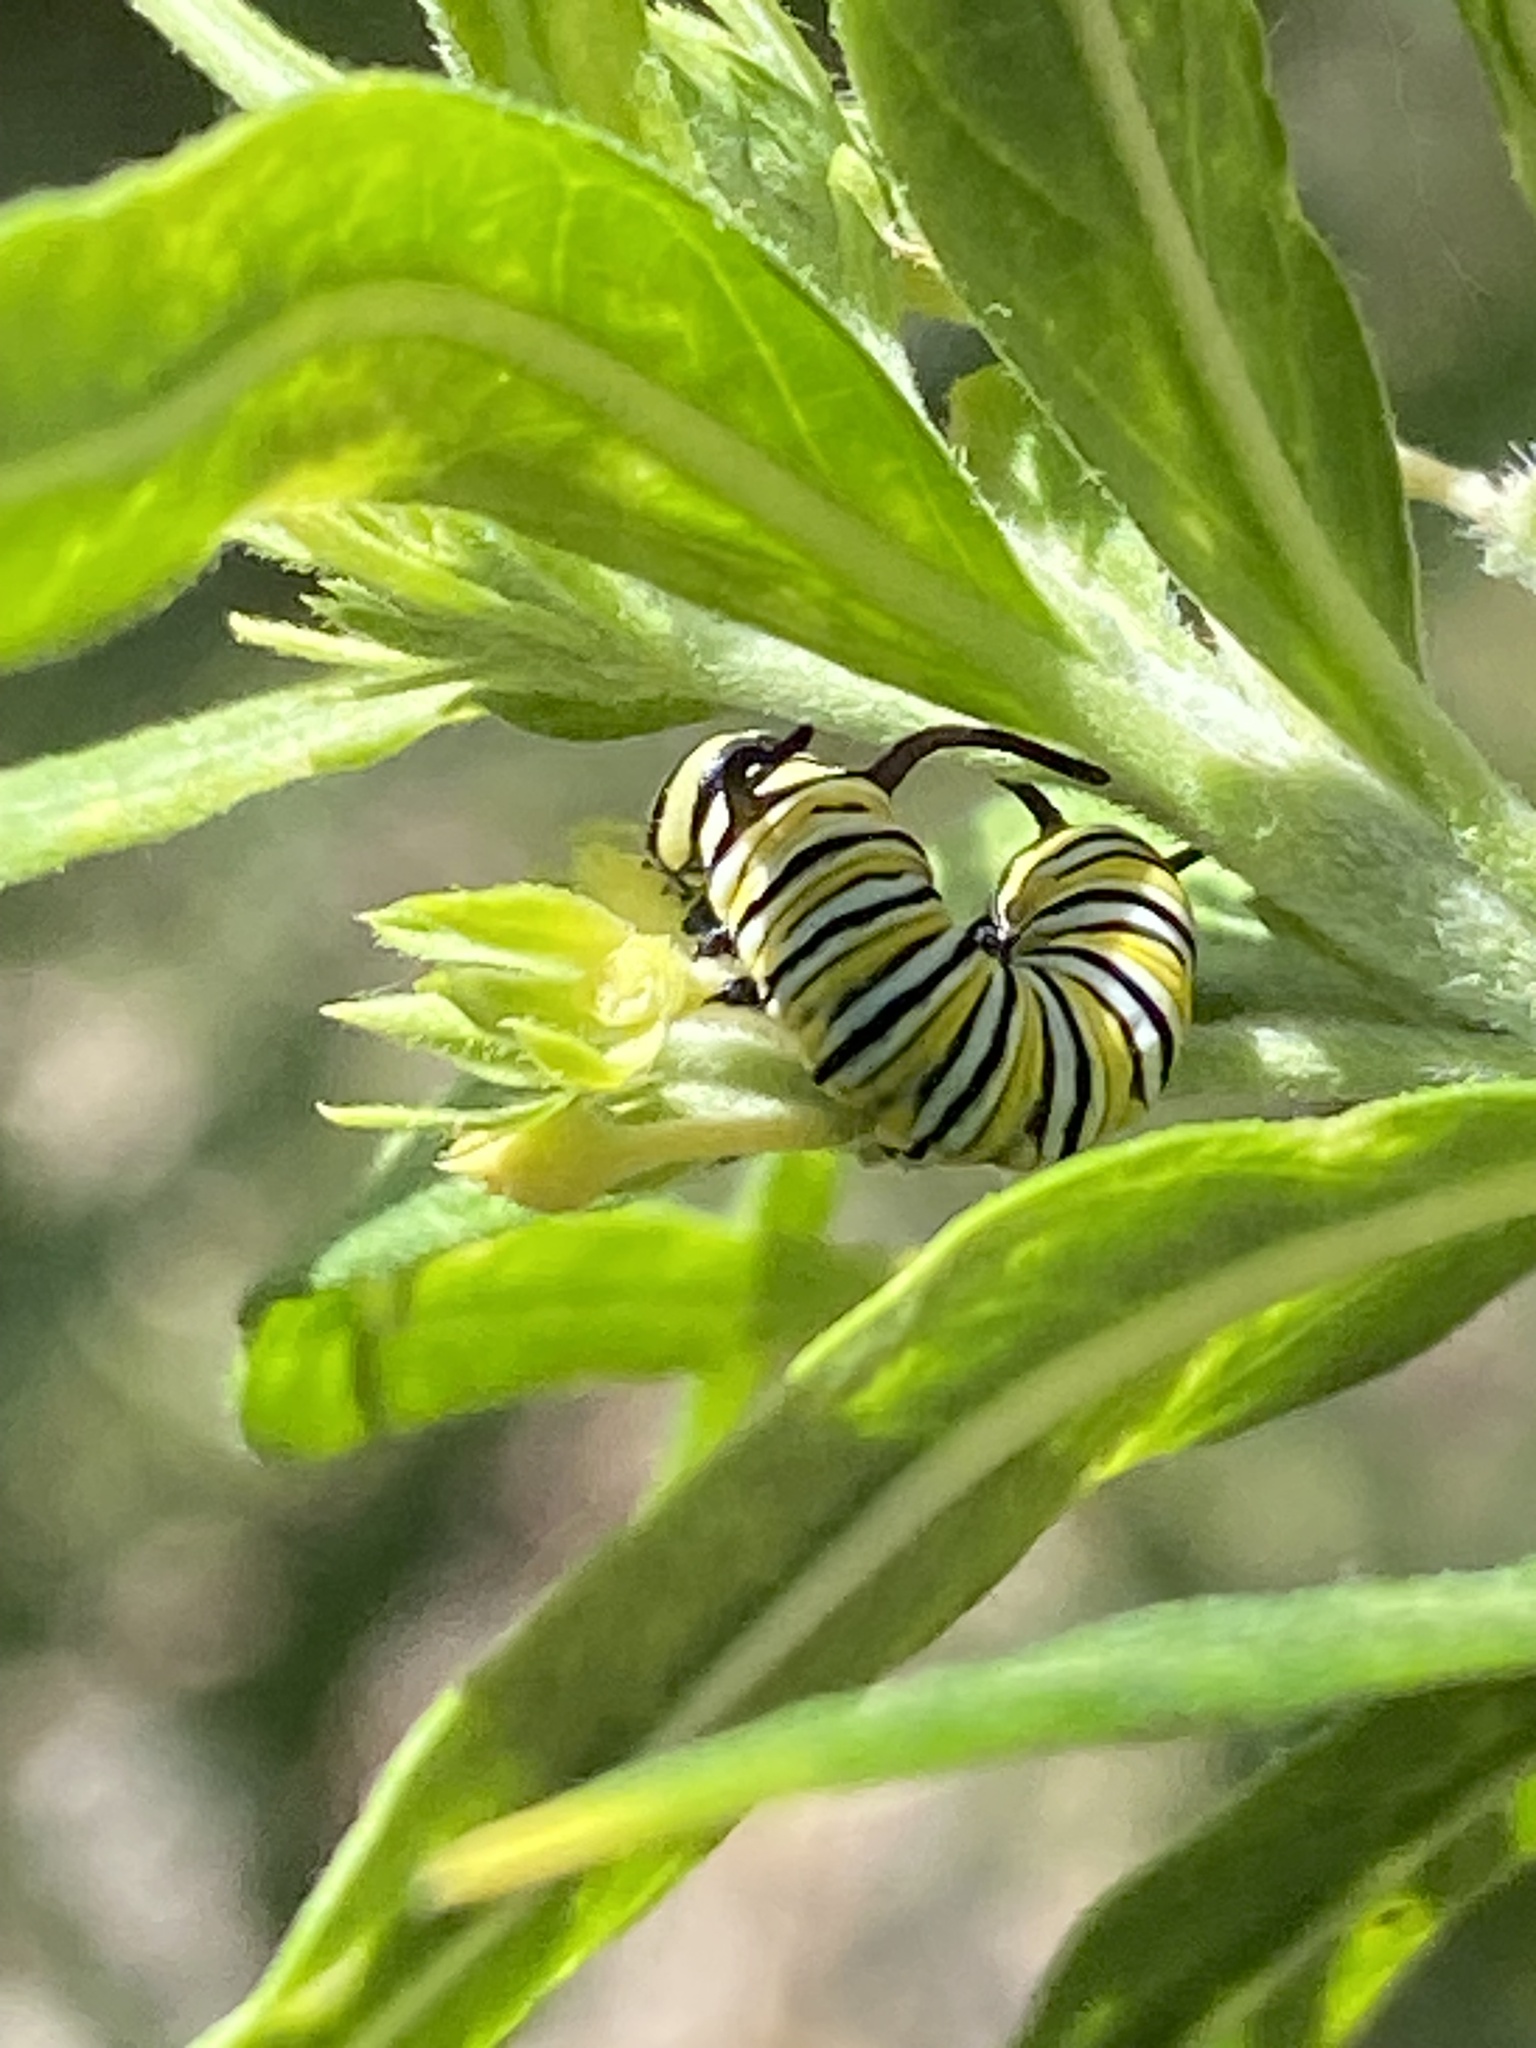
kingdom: Animalia
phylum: Arthropoda
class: Insecta
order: Lepidoptera
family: Nymphalidae
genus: Danaus
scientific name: Danaus plexippus
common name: Monarch
